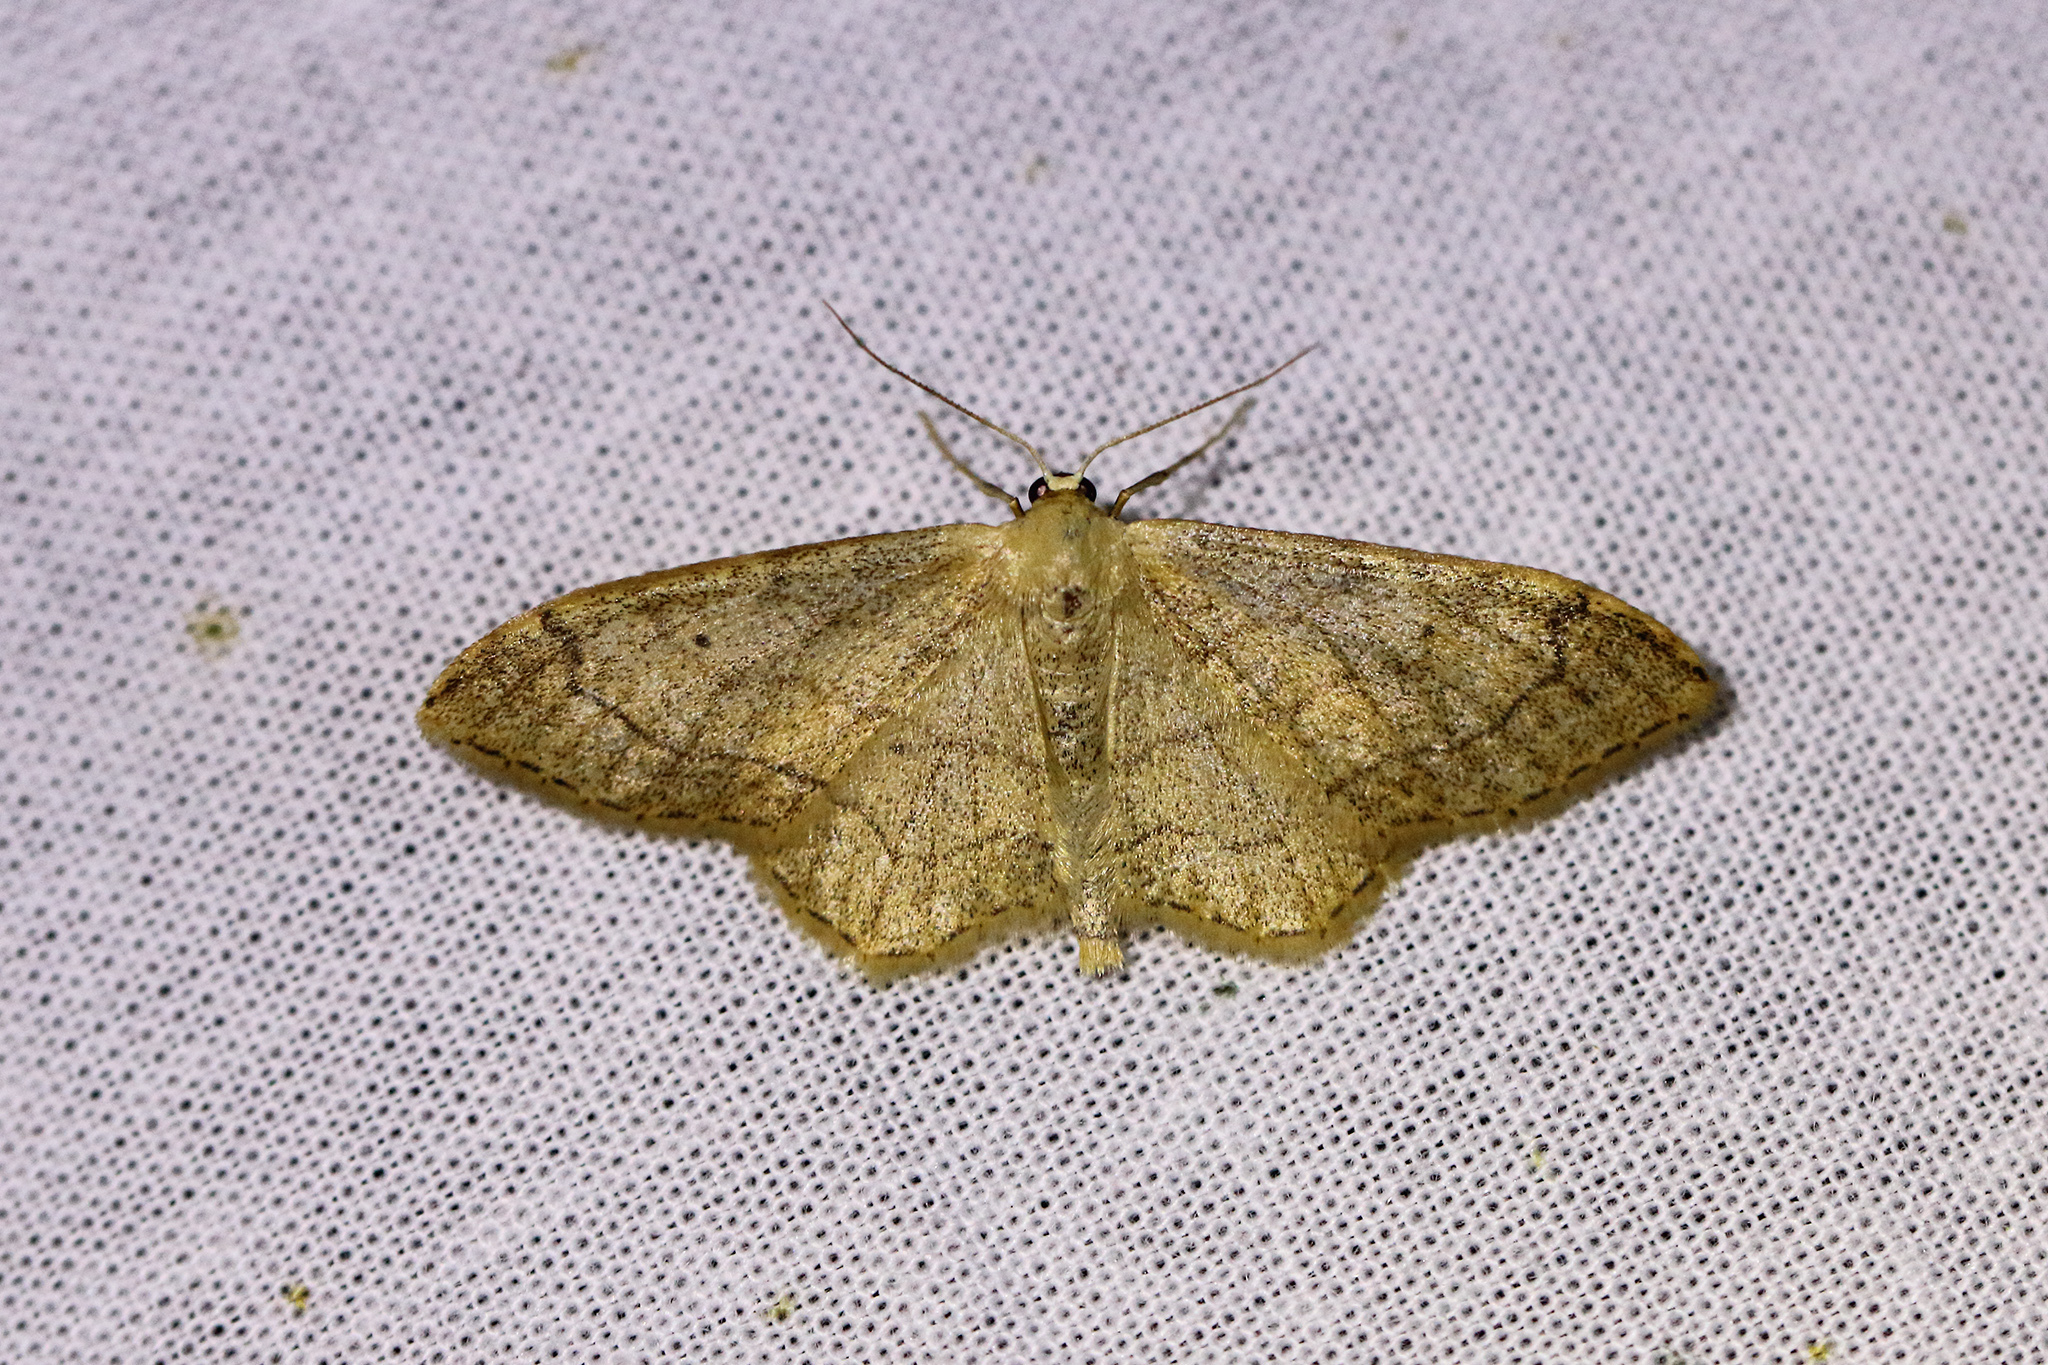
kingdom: Animalia
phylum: Arthropoda
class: Insecta
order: Lepidoptera
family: Geometridae
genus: Idaea
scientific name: Idaea aversata
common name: Riband wave
